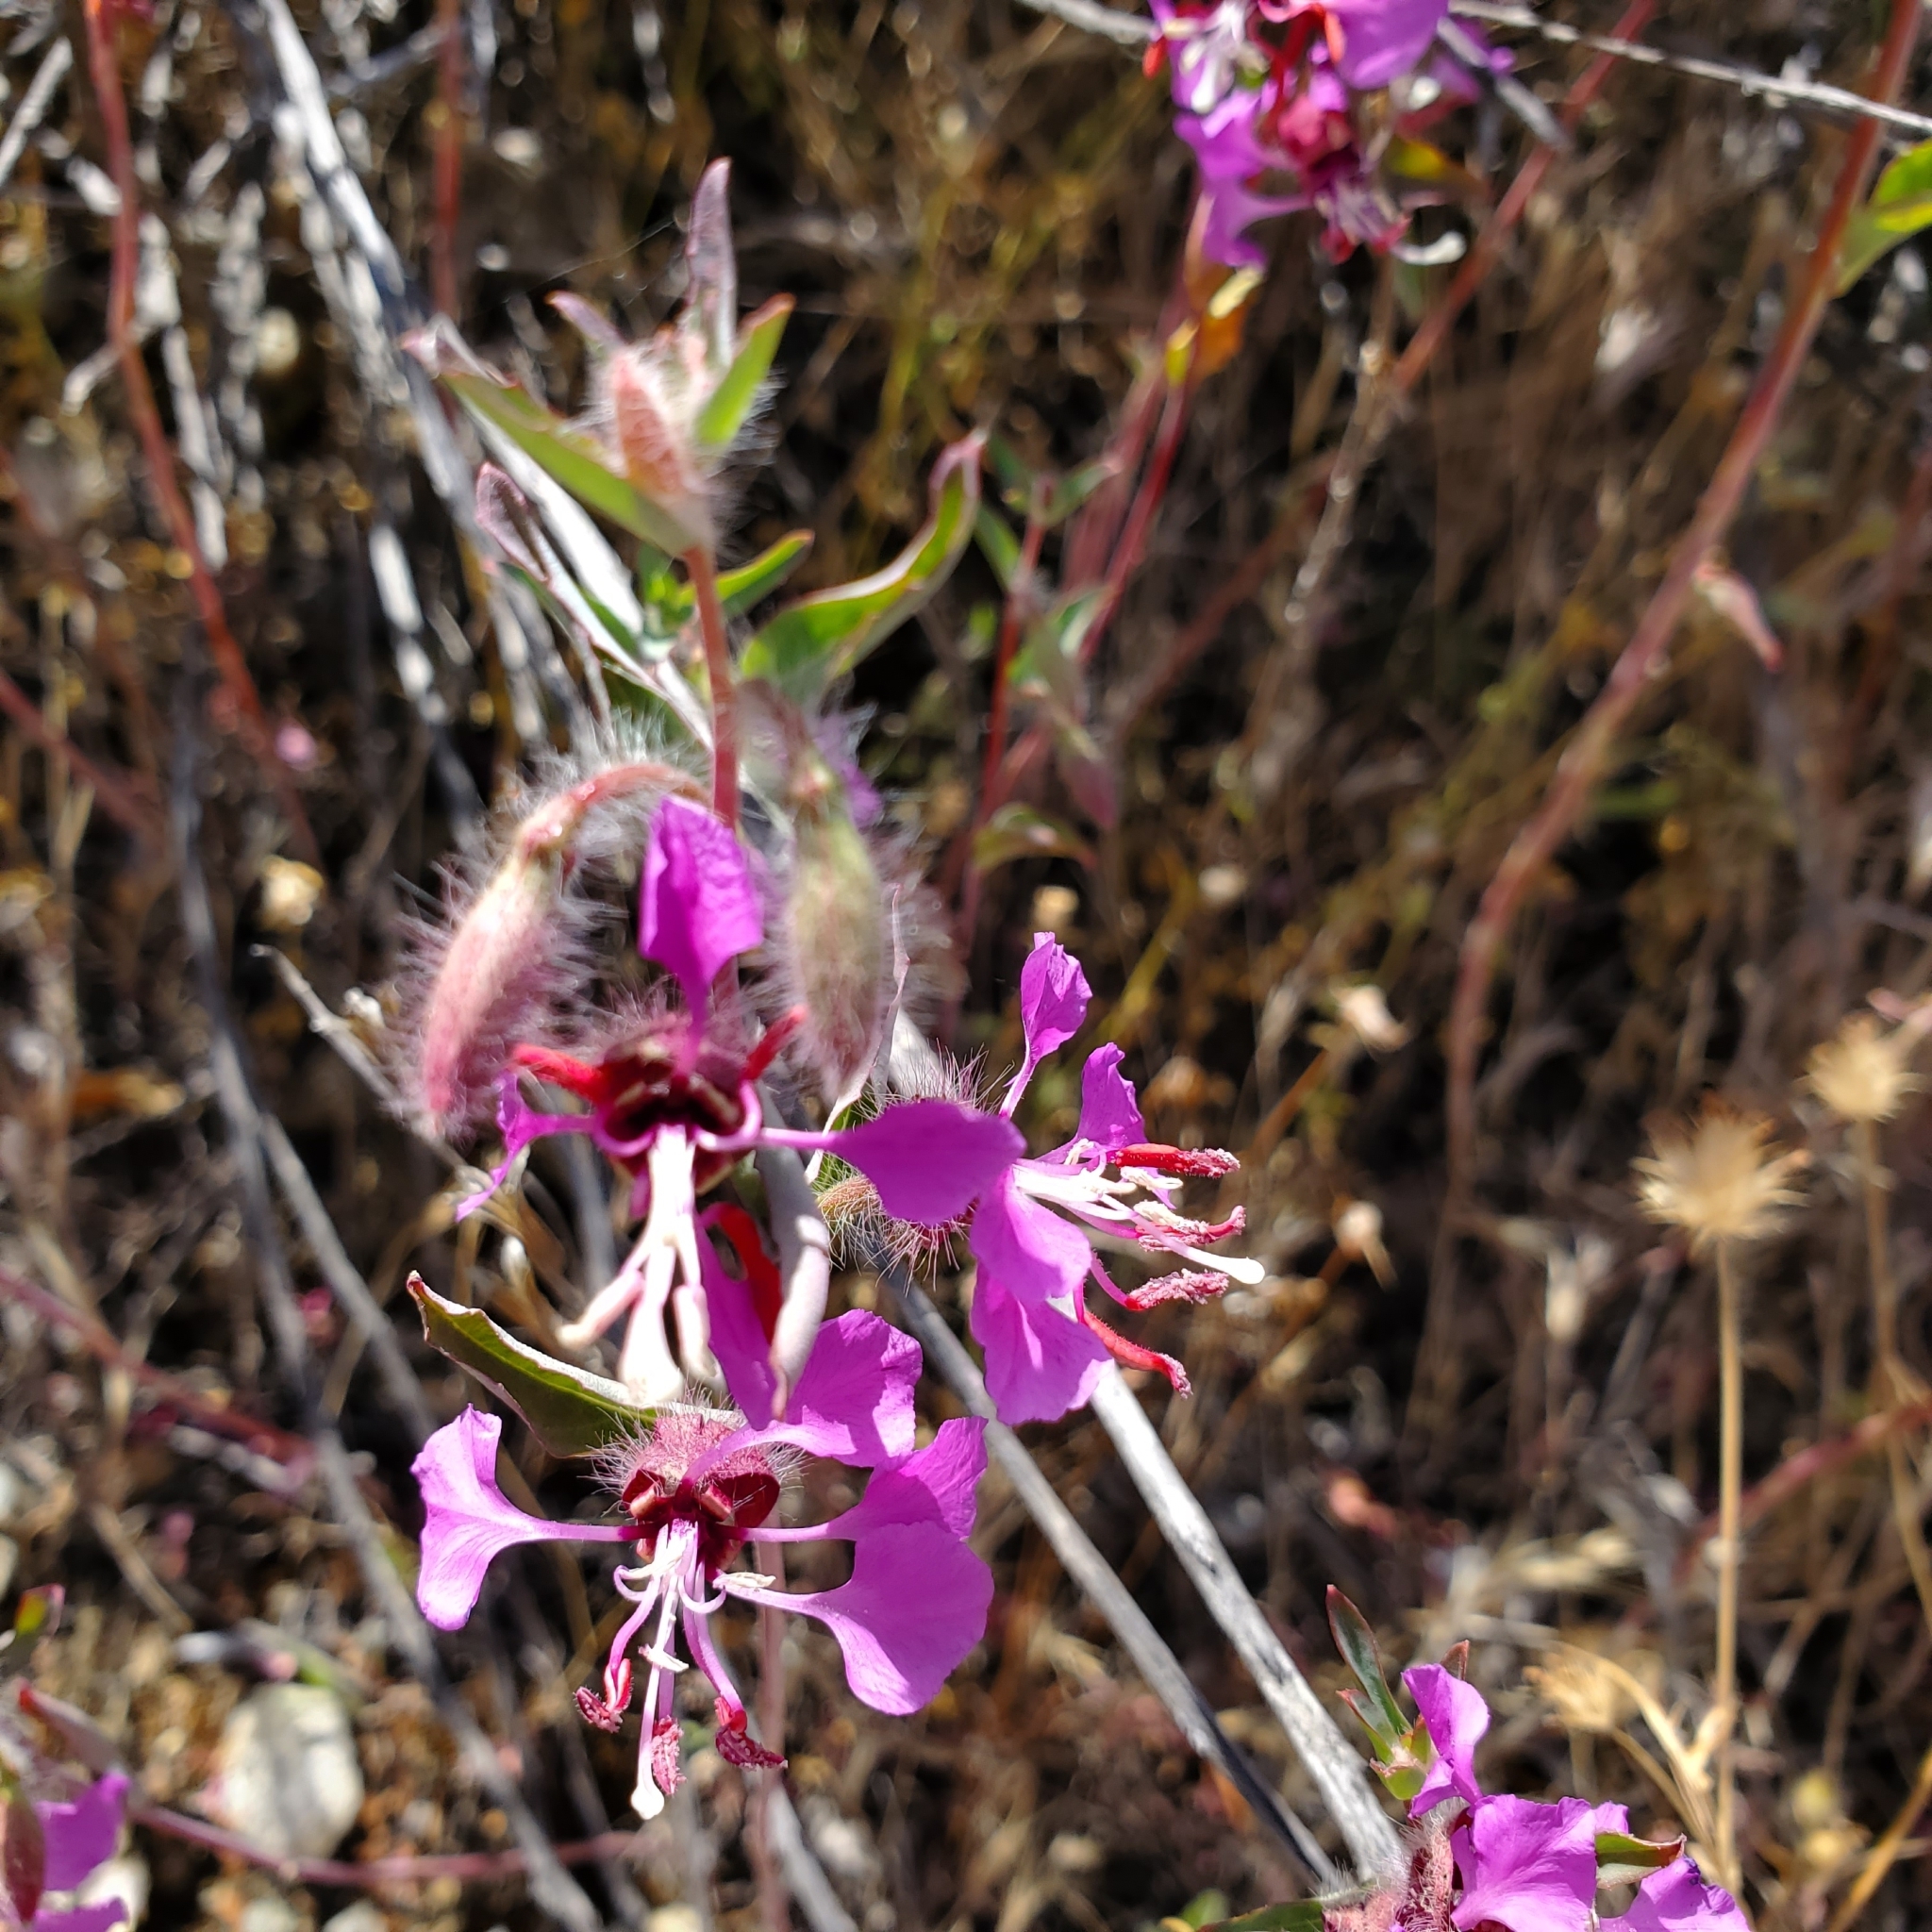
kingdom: Plantae
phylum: Tracheophyta
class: Magnoliopsida
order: Myrtales
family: Onagraceae
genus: Clarkia
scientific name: Clarkia unguiculata
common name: Clarkia
